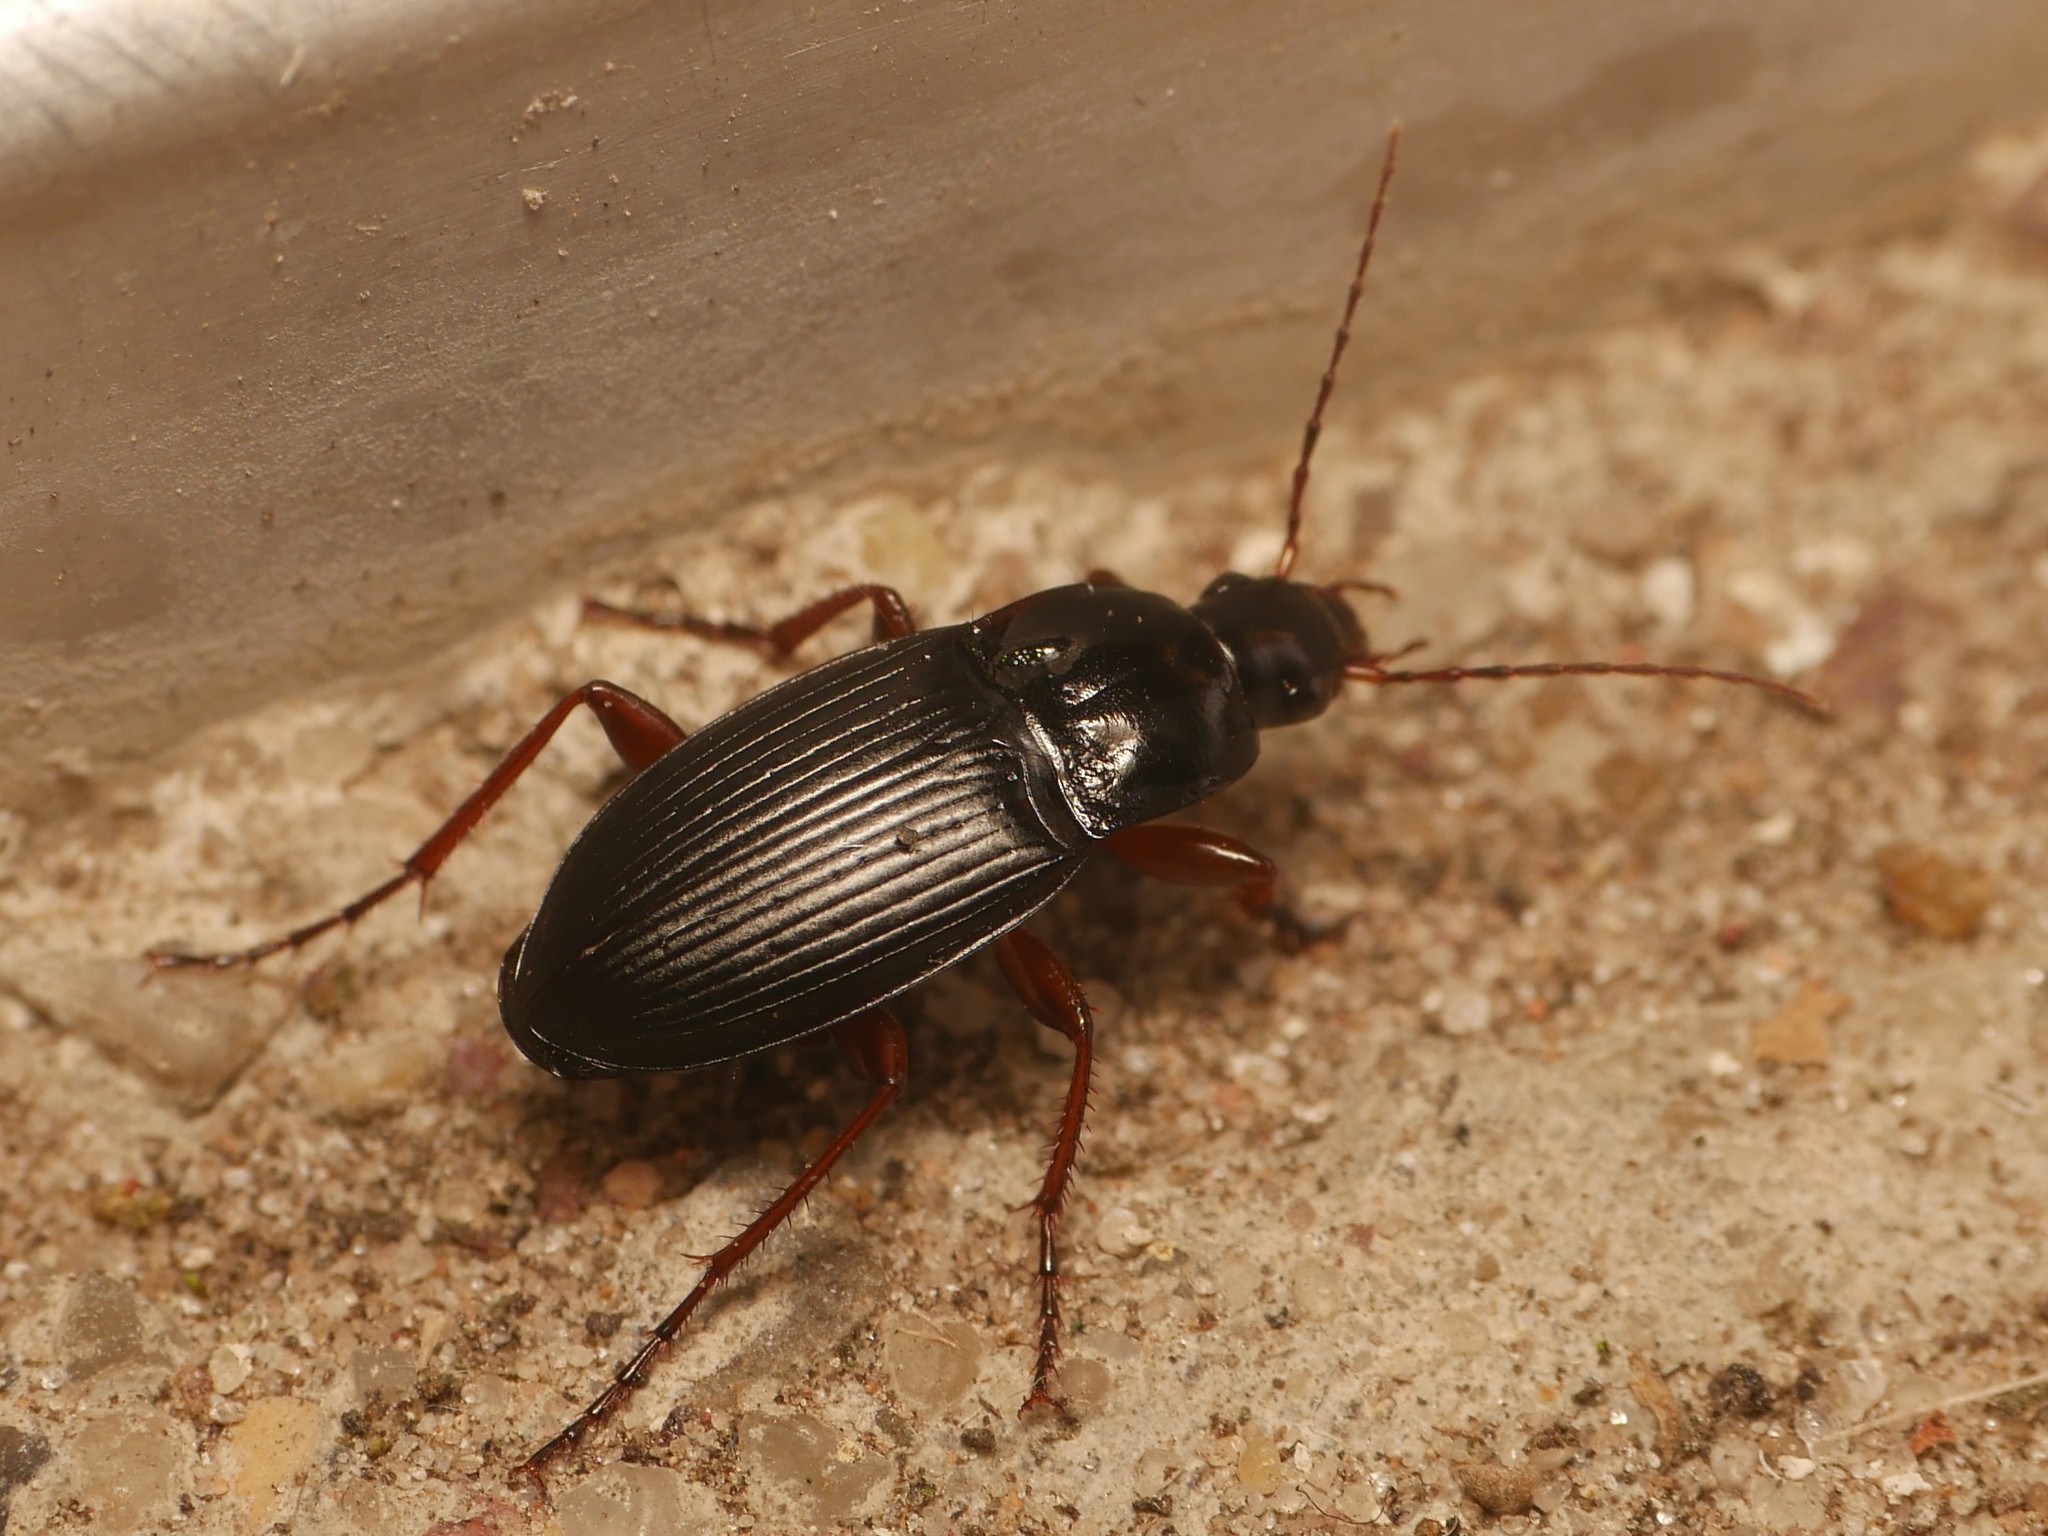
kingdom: Animalia
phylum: Arthropoda
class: Insecta
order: Coleoptera
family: Carabidae
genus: Calathus
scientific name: Calathus fuscipes
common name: Dark-footed harp ground beetle
